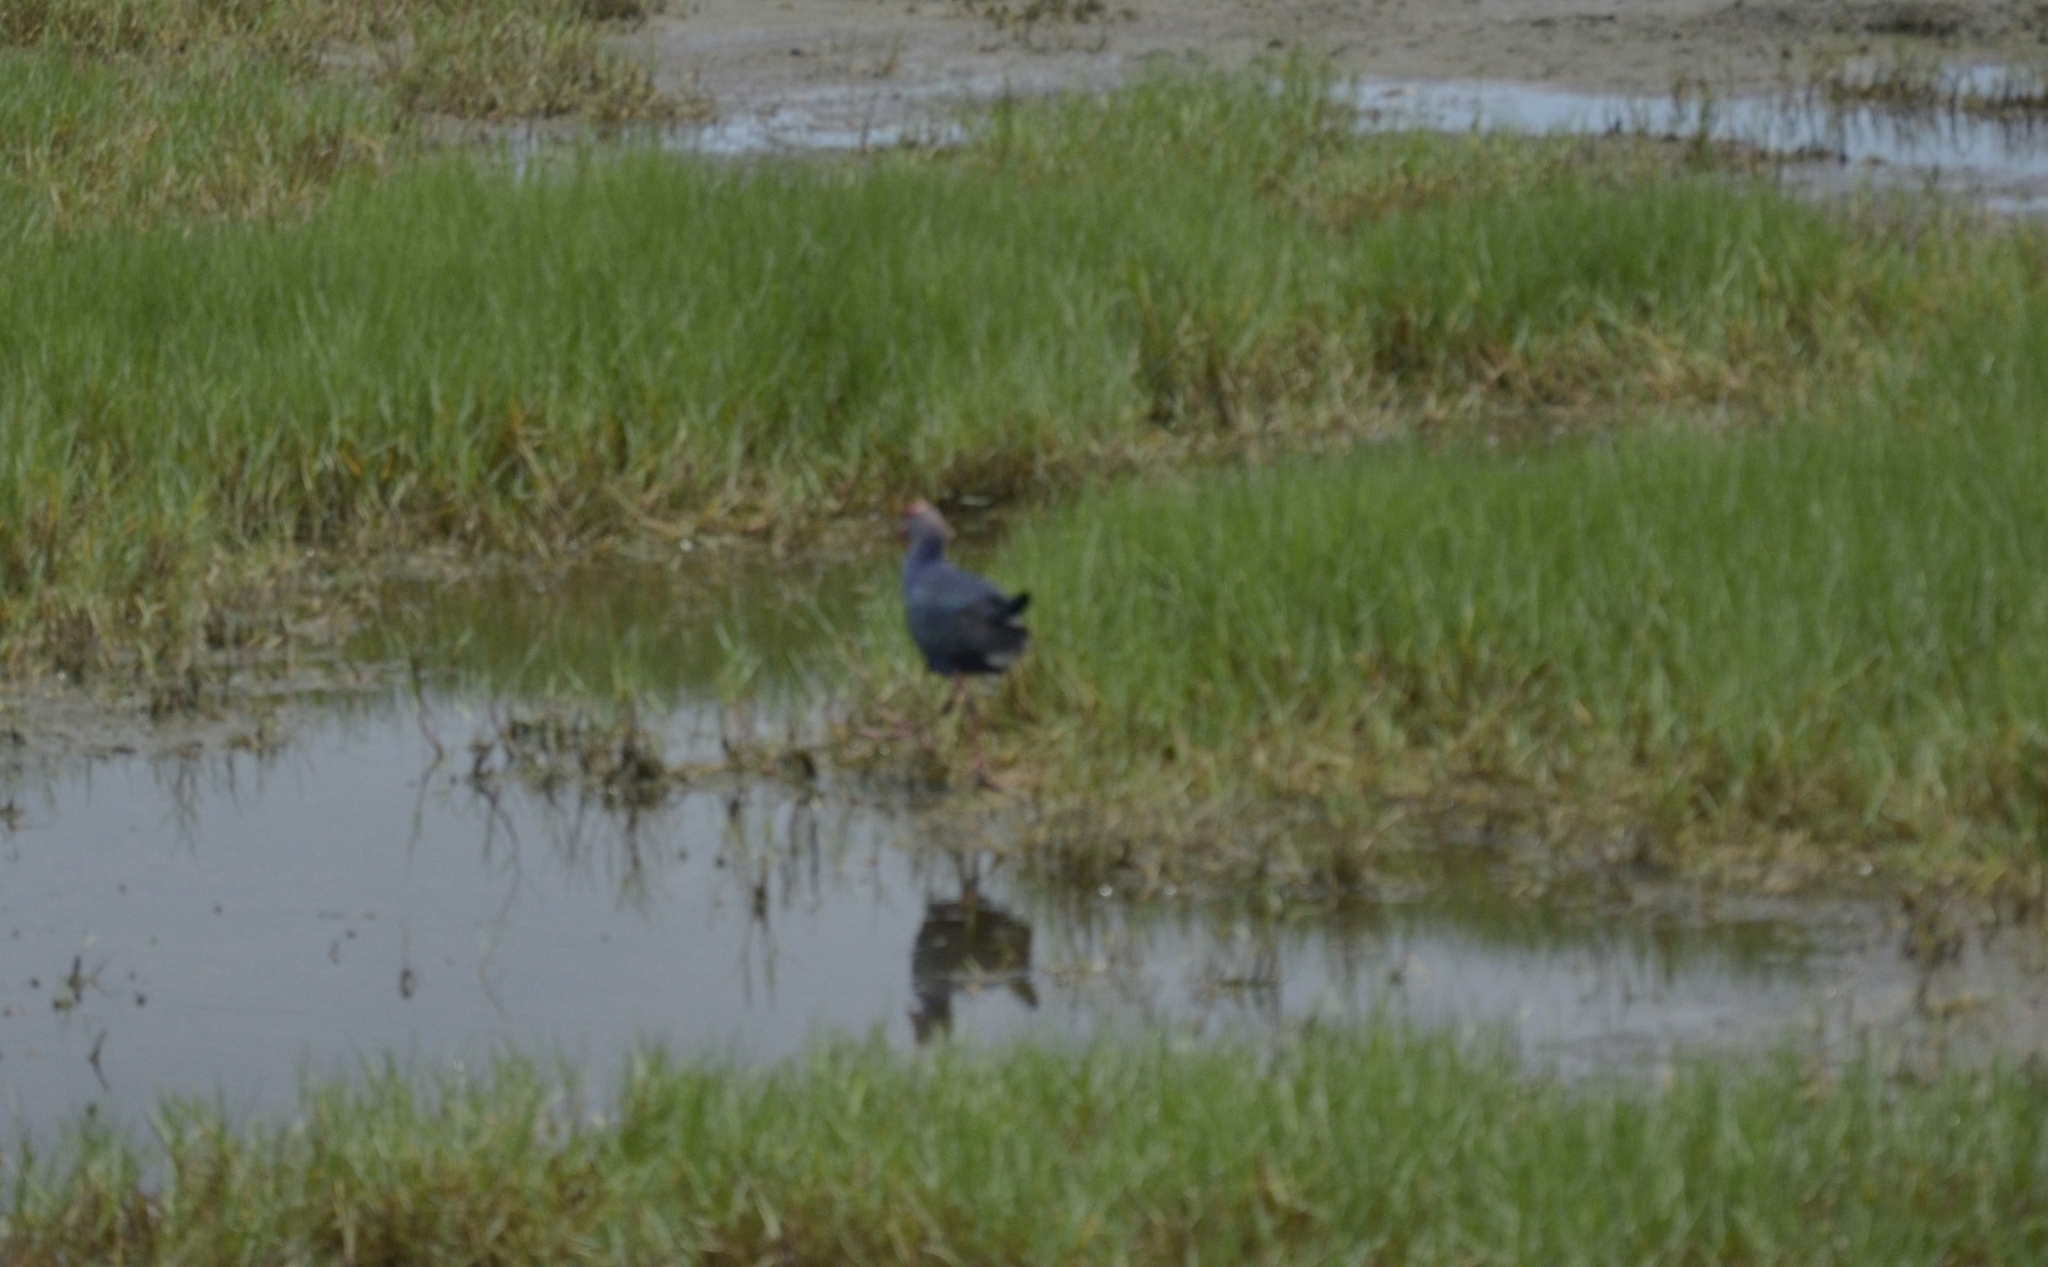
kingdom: Animalia
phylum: Chordata
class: Aves
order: Gruiformes
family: Rallidae
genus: Porphyrio
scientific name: Porphyrio porphyrio
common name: Purple swamphen
